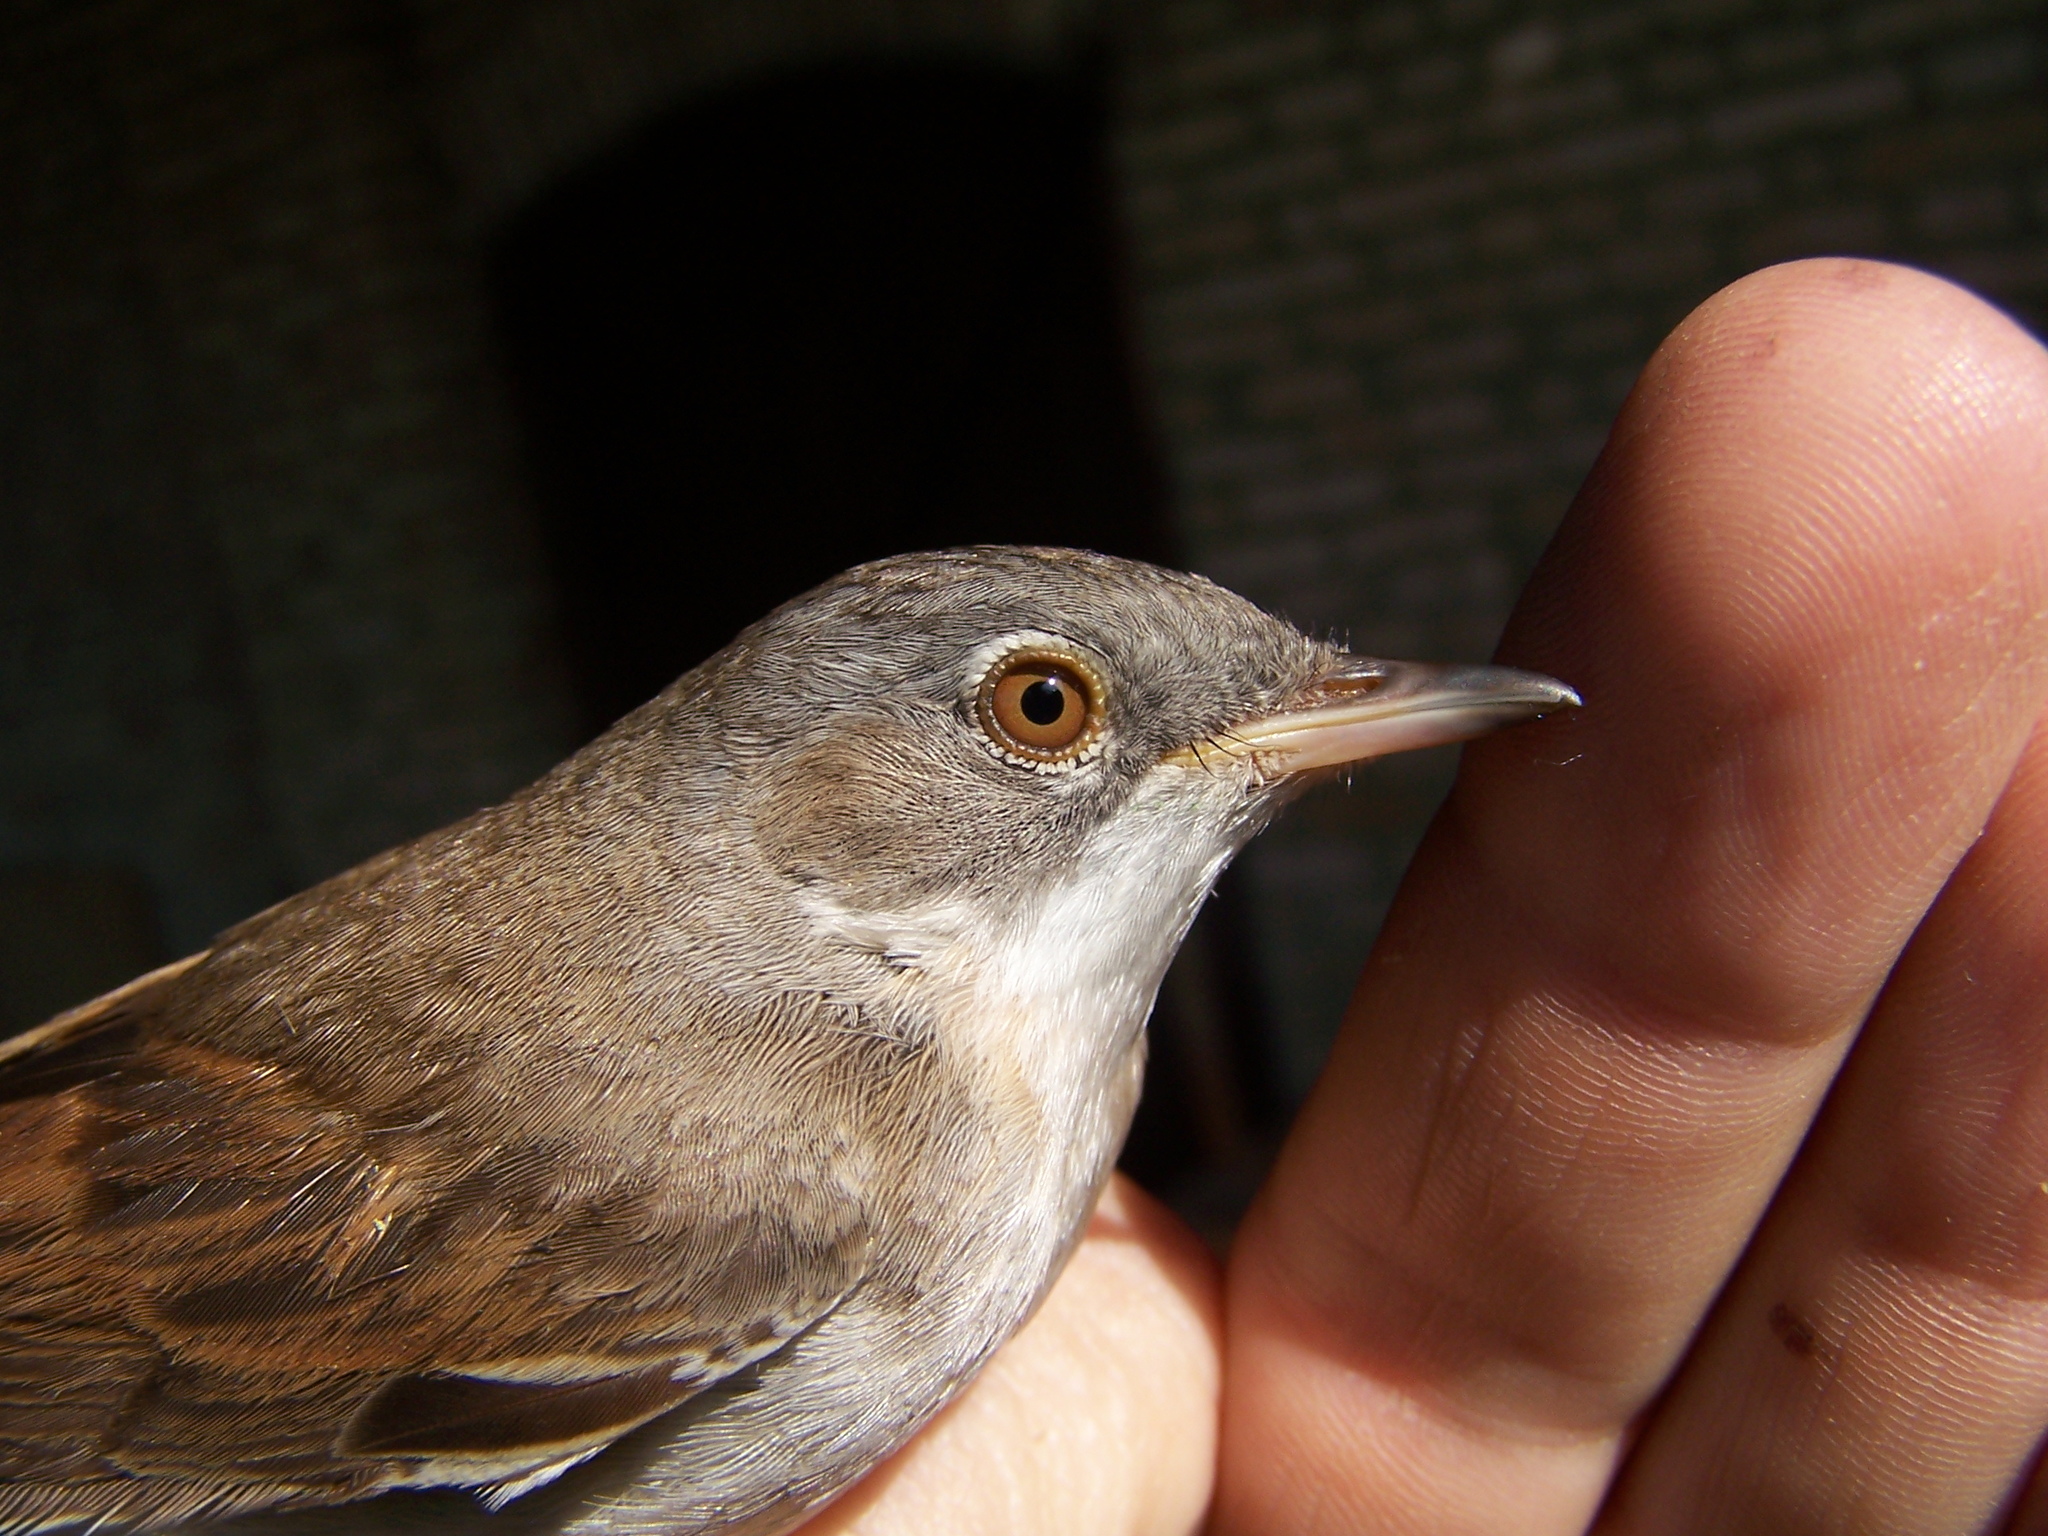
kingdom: Animalia
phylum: Chordata
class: Aves
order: Passeriformes
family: Sylviidae
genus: Sylvia
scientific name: Sylvia communis
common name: Common whitethroat
